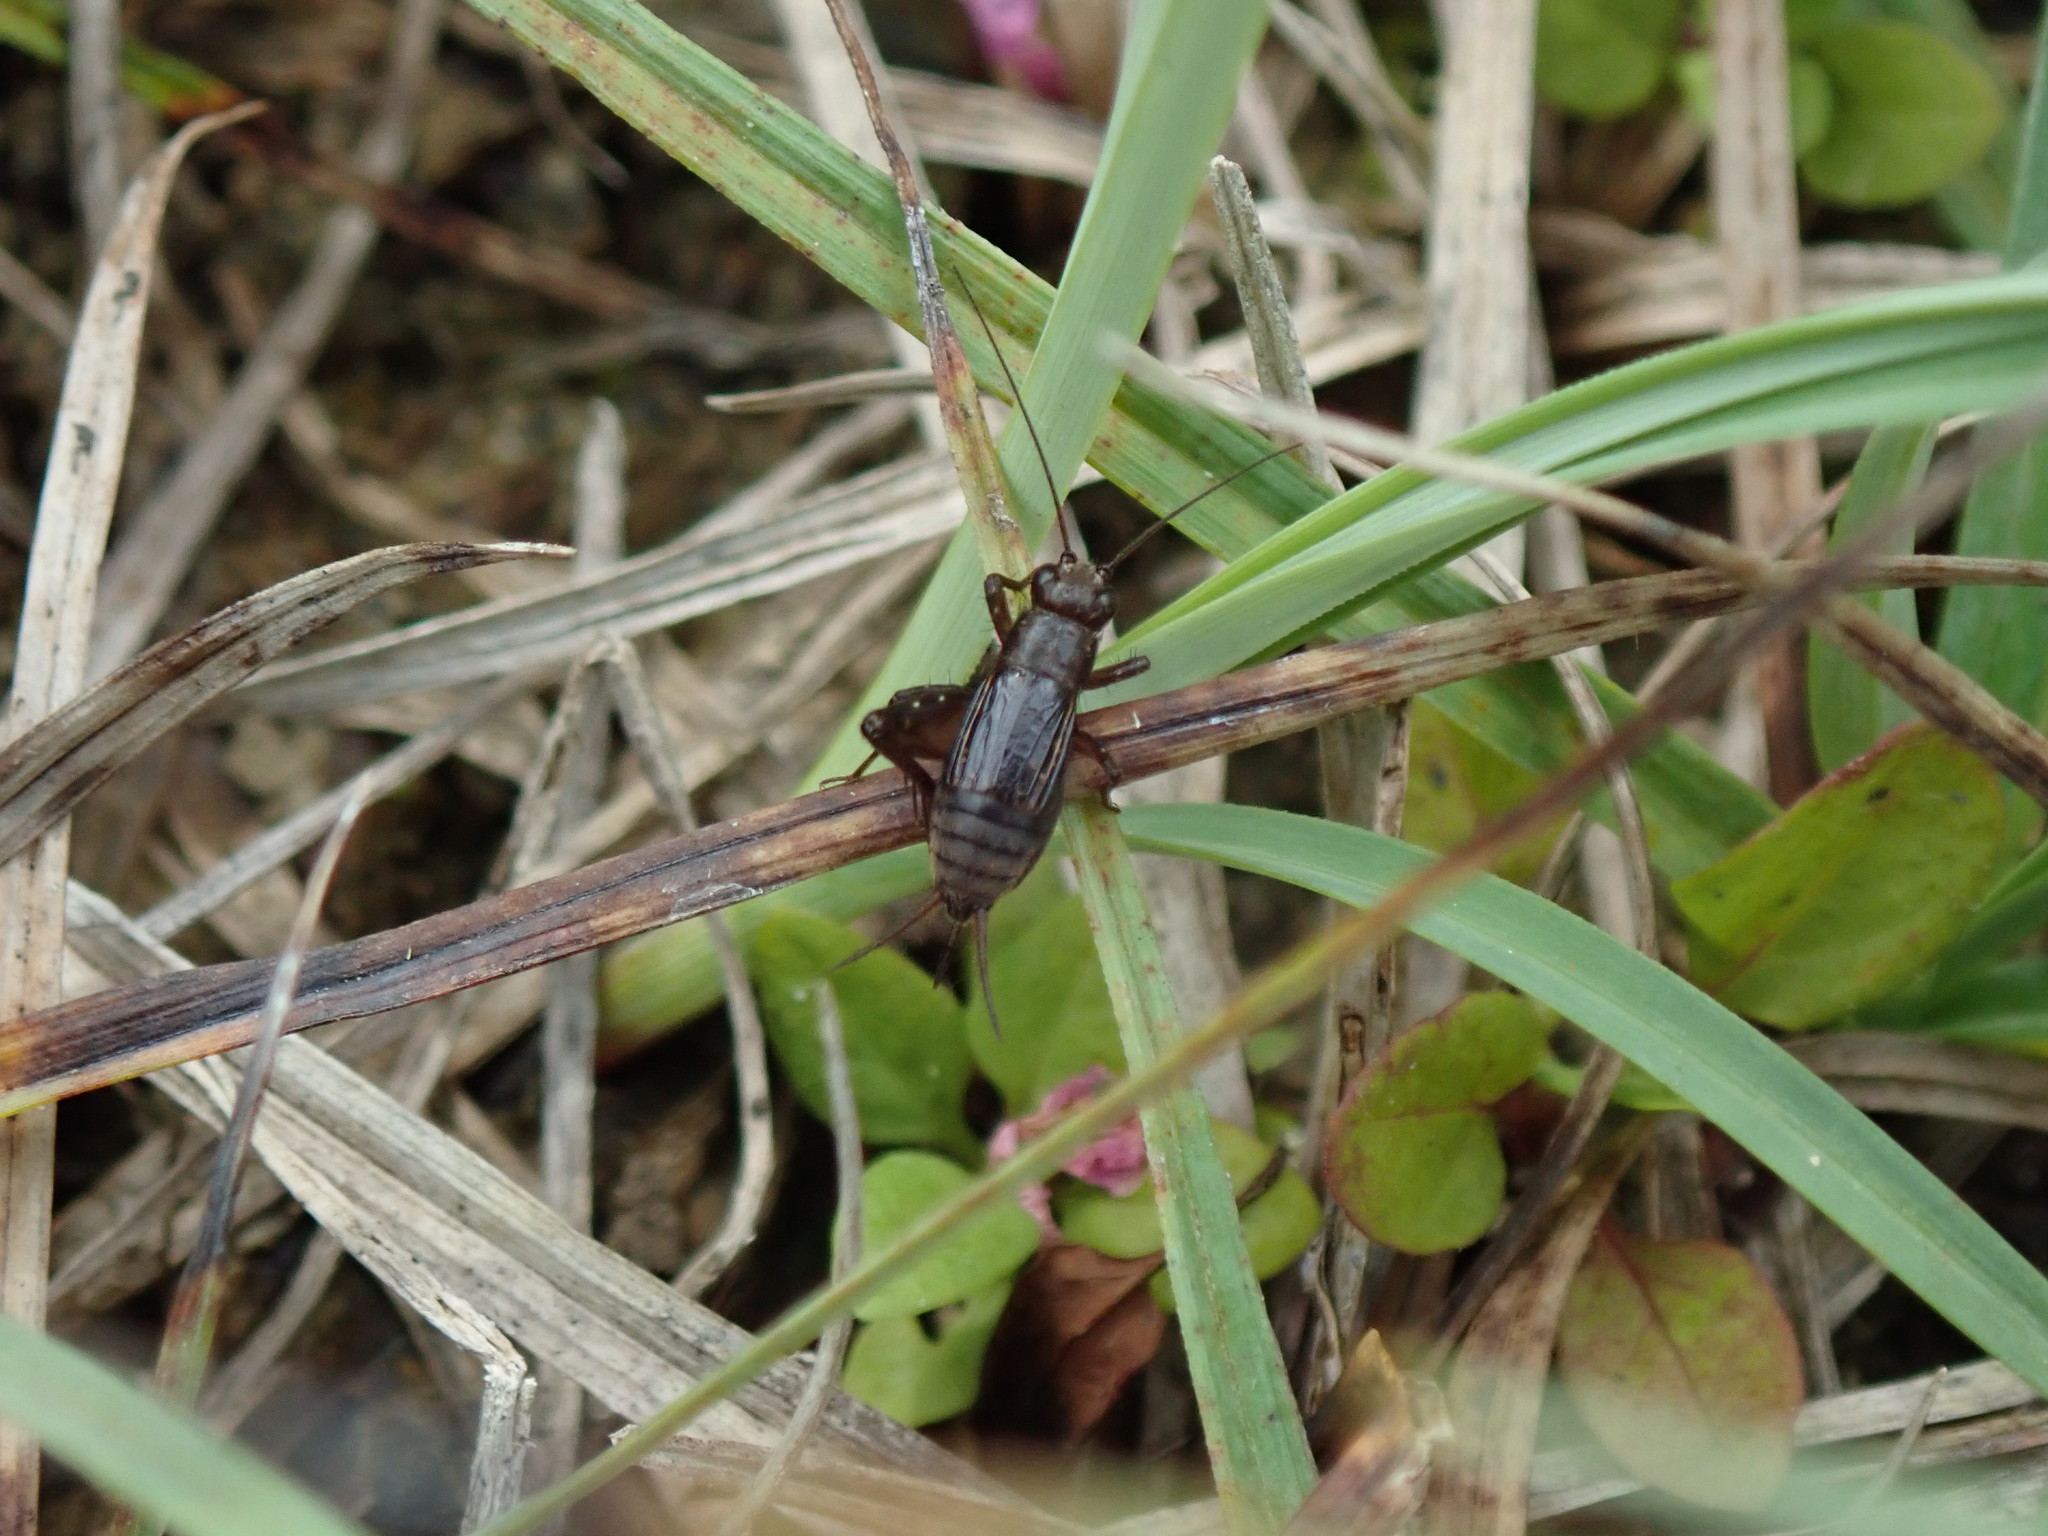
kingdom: Animalia
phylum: Arthropoda
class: Insecta
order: Orthoptera
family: Trigonidiidae
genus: Pteronemobius
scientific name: Pteronemobius heydenii
